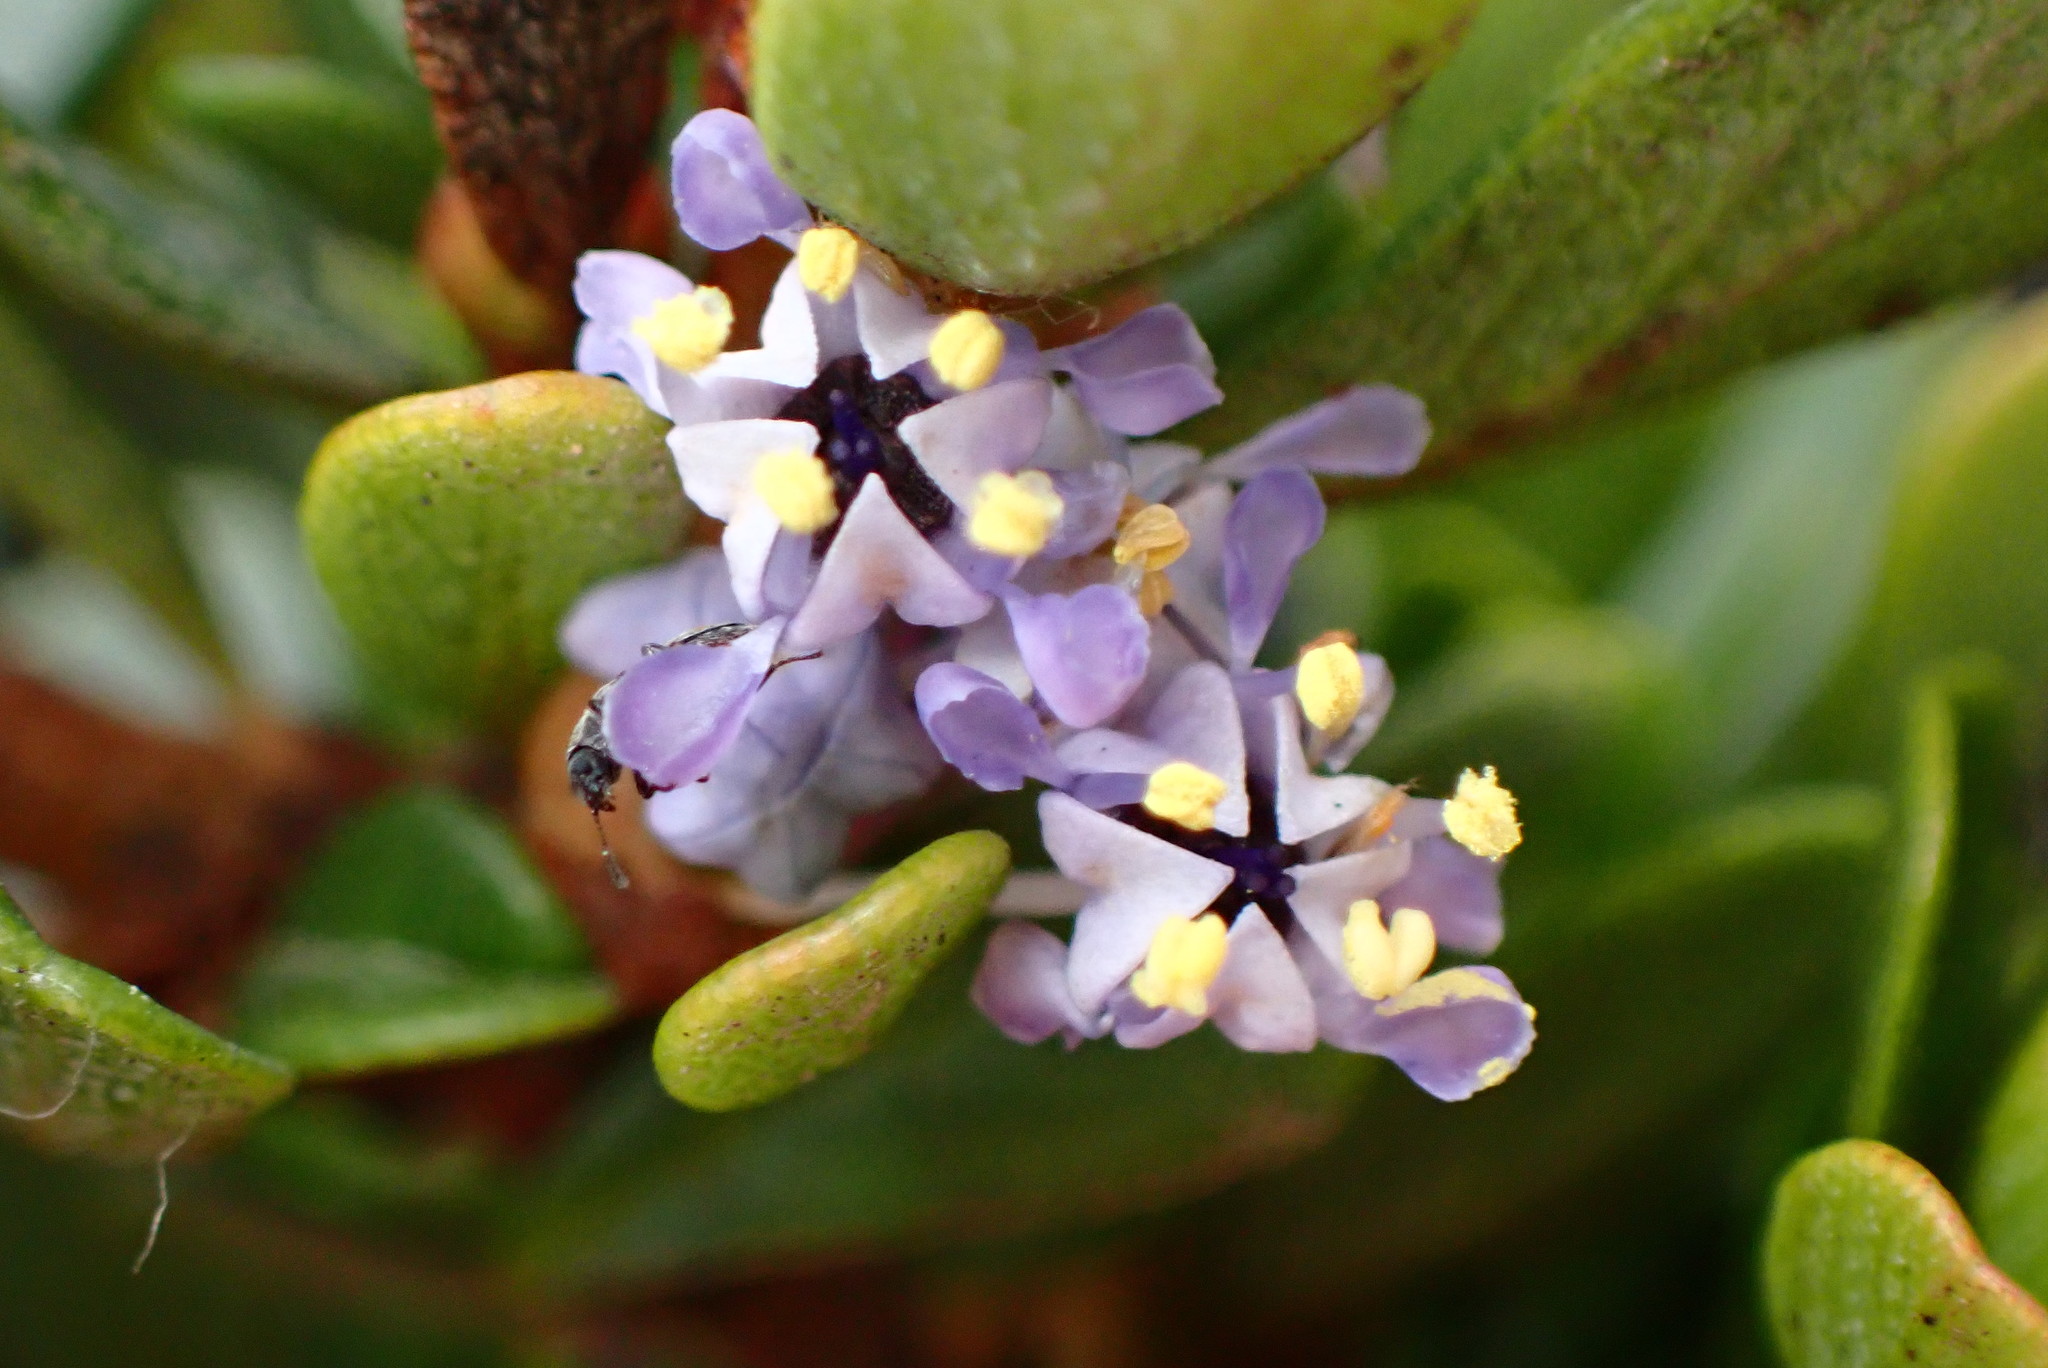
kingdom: Plantae
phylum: Tracheophyta
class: Magnoliopsida
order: Rosales
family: Rhamnaceae
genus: Ceanothus
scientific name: Ceanothus cuneatus
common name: Cuneate ceanothus
